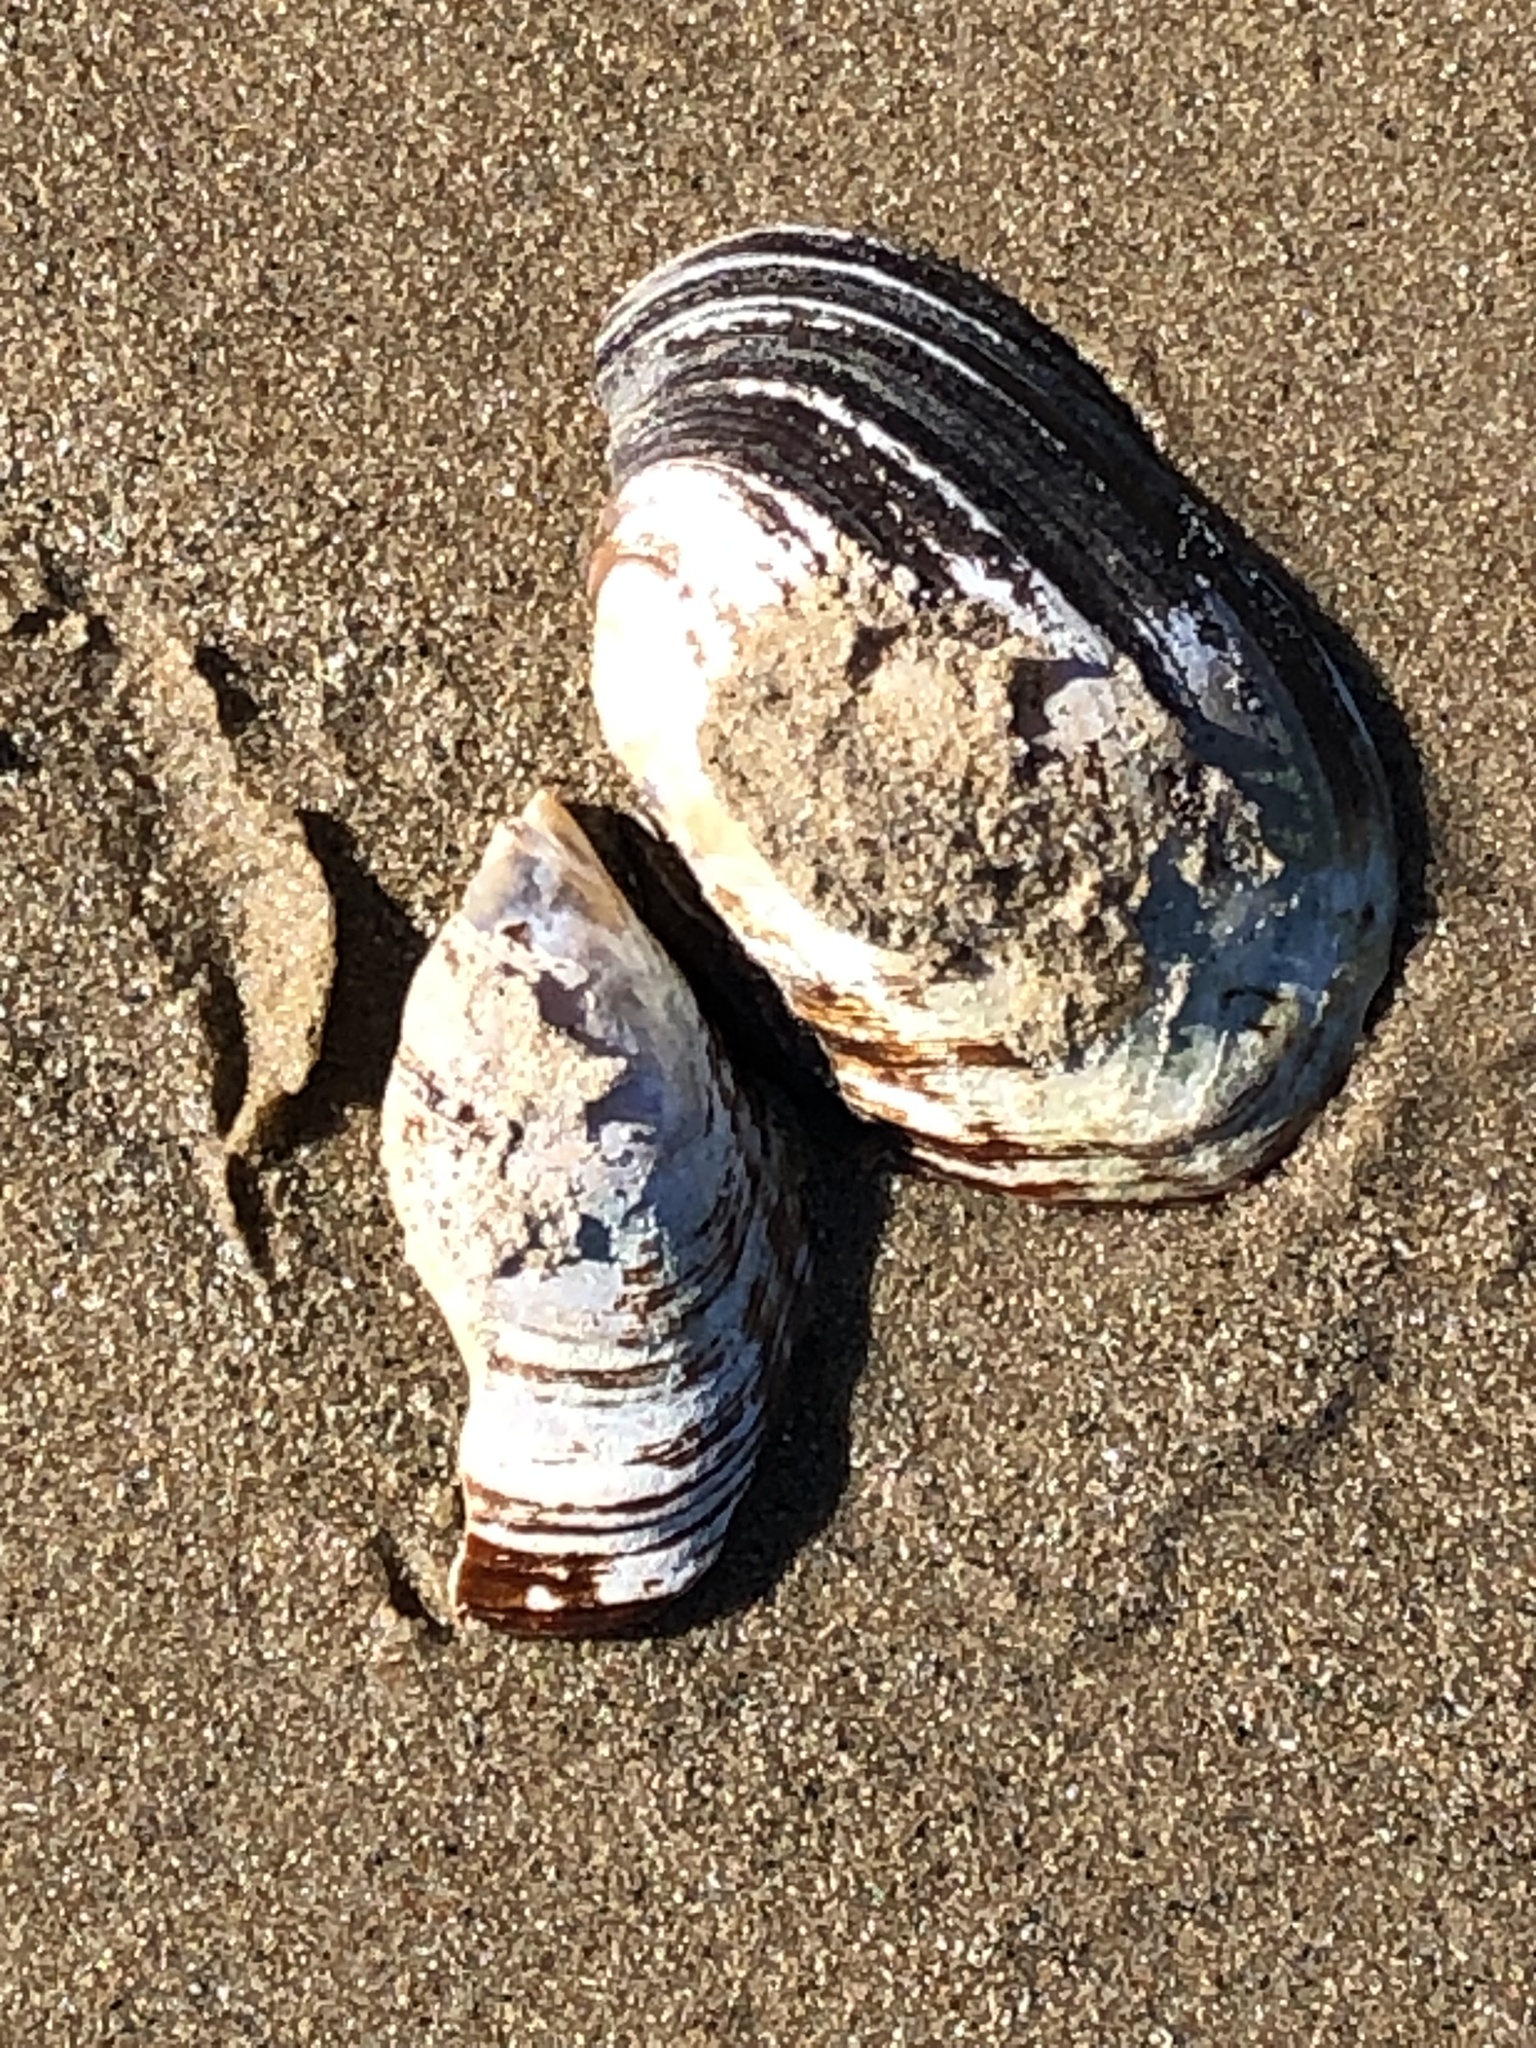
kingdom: Animalia
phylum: Mollusca
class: Bivalvia
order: Unionida
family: Unionidae
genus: Lampsilis
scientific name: Lampsilis siliquoidea
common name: Fatmucket
